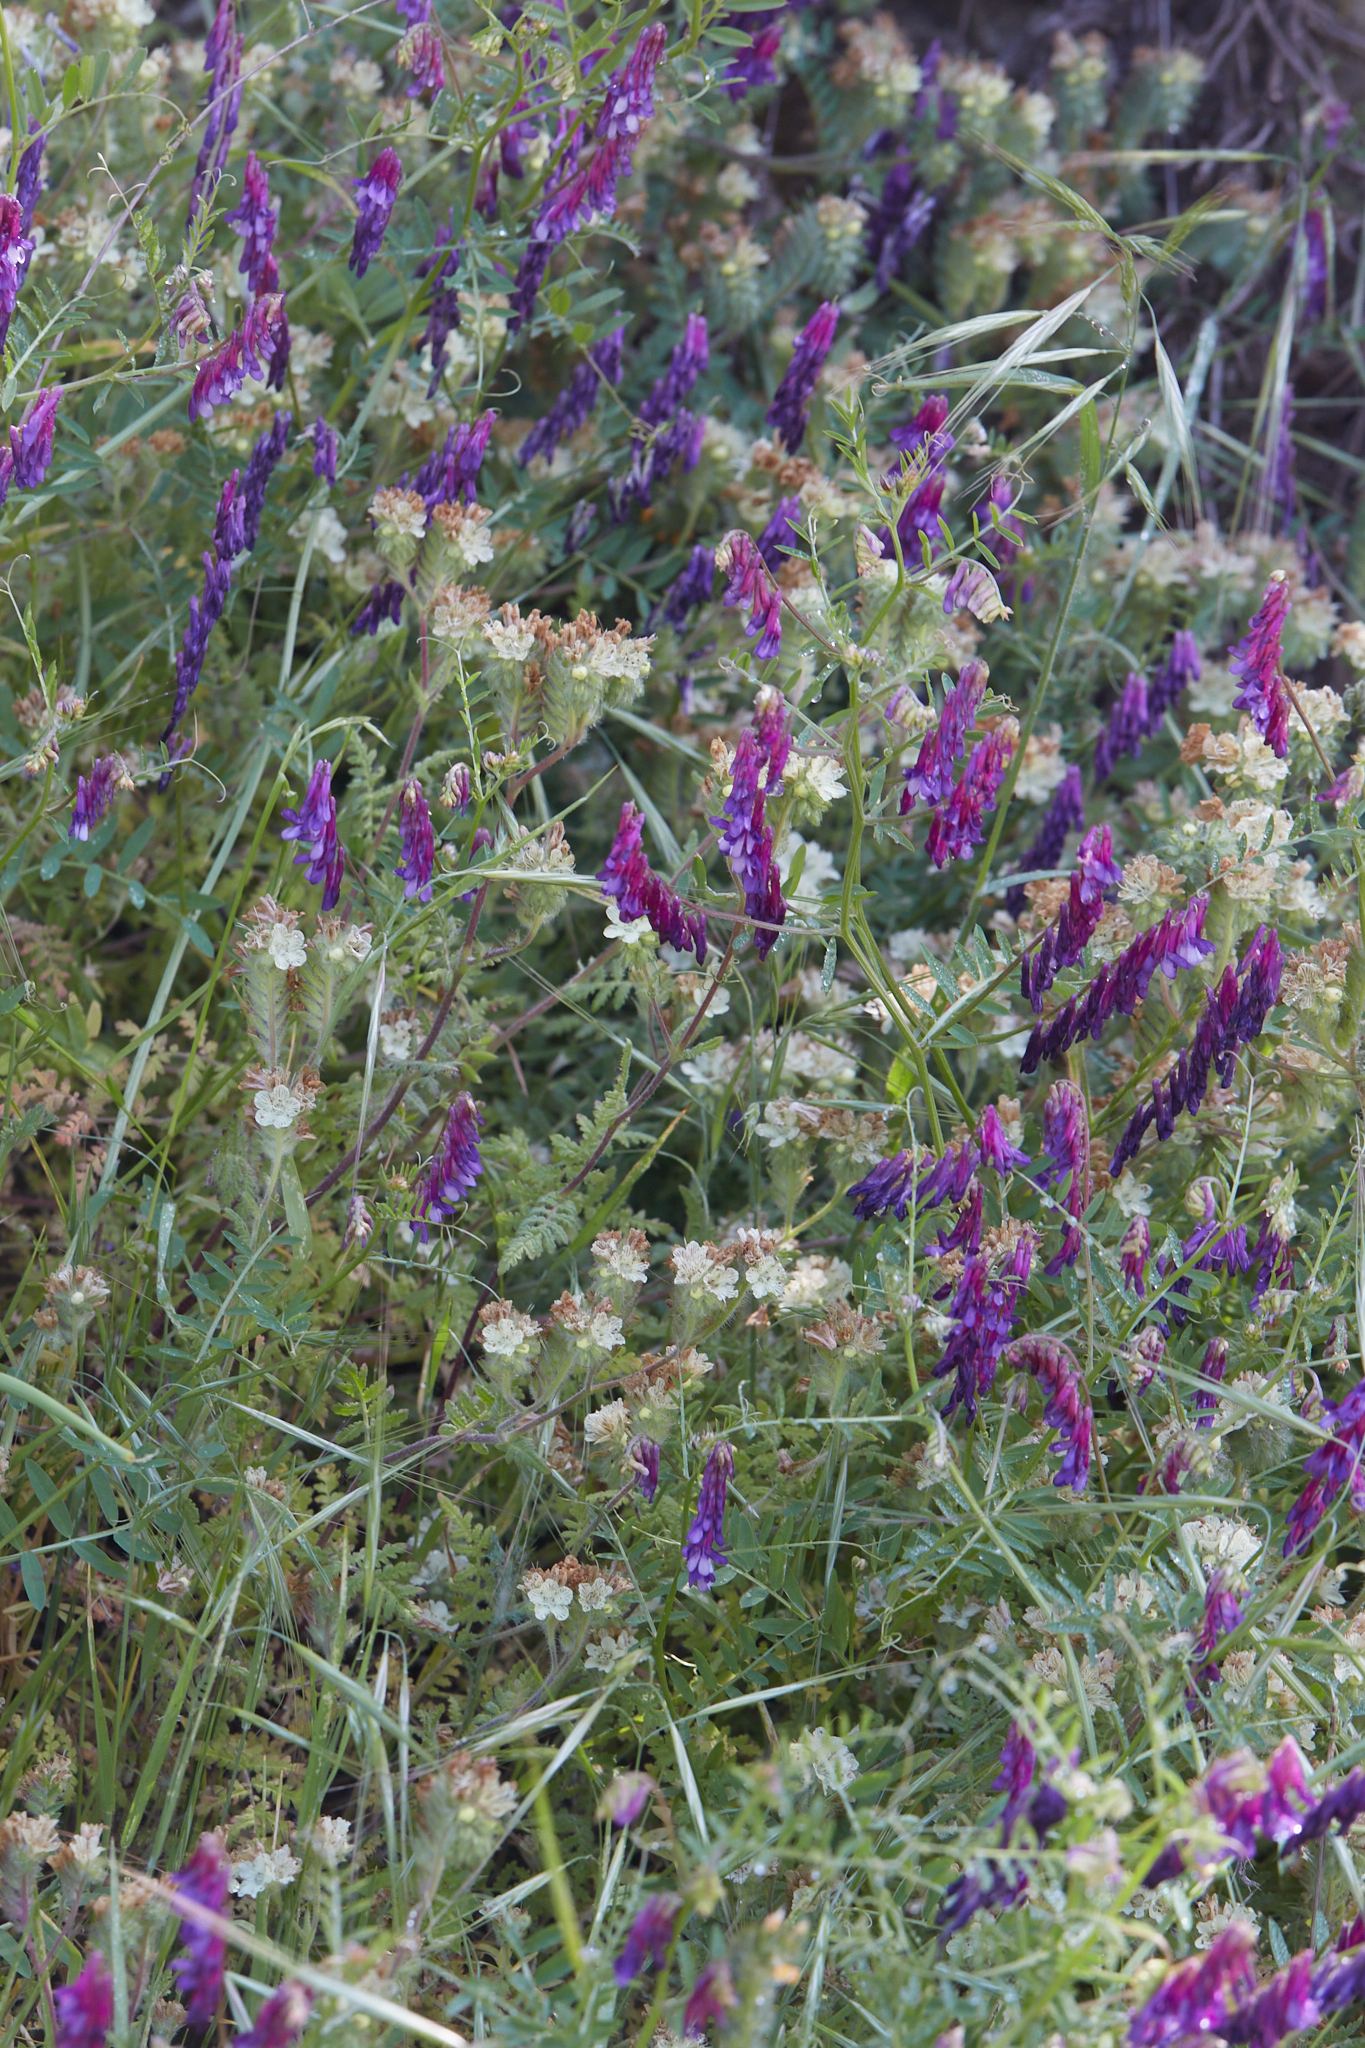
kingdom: Plantae
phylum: Tracheophyta
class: Magnoliopsida
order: Boraginales
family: Hydrophyllaceae
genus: Phacelia
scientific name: Phacelia distans
